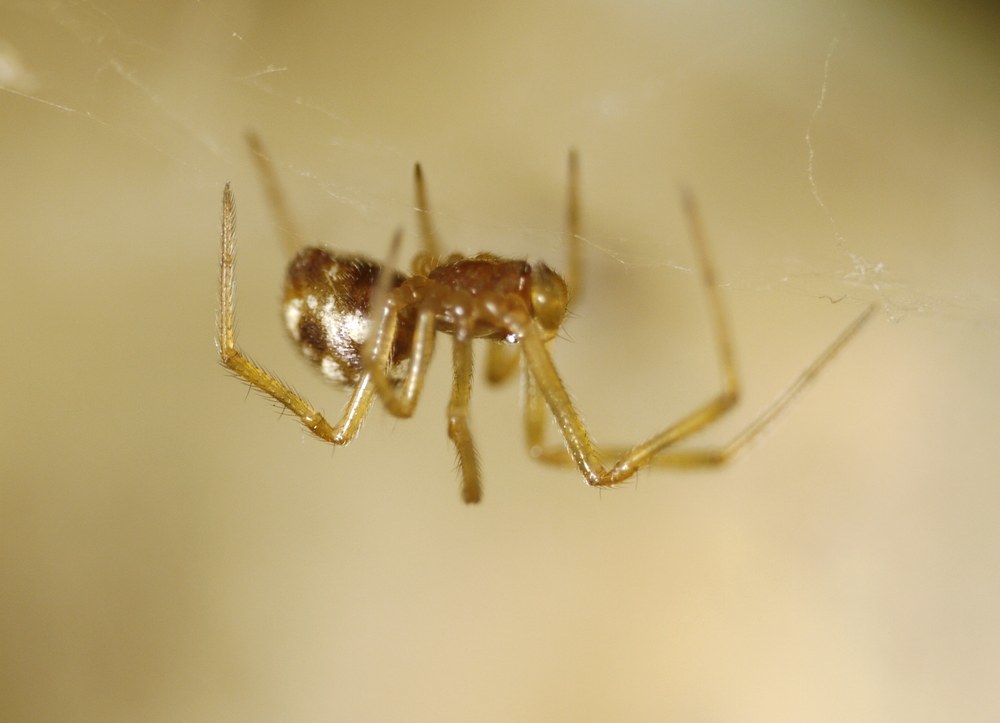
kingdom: Animalia
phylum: Arthropoda
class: Arachnida
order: Araneae
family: Theridiidae
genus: Steatoda
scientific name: Steatoda triangulosa
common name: Triangulate bud spider
